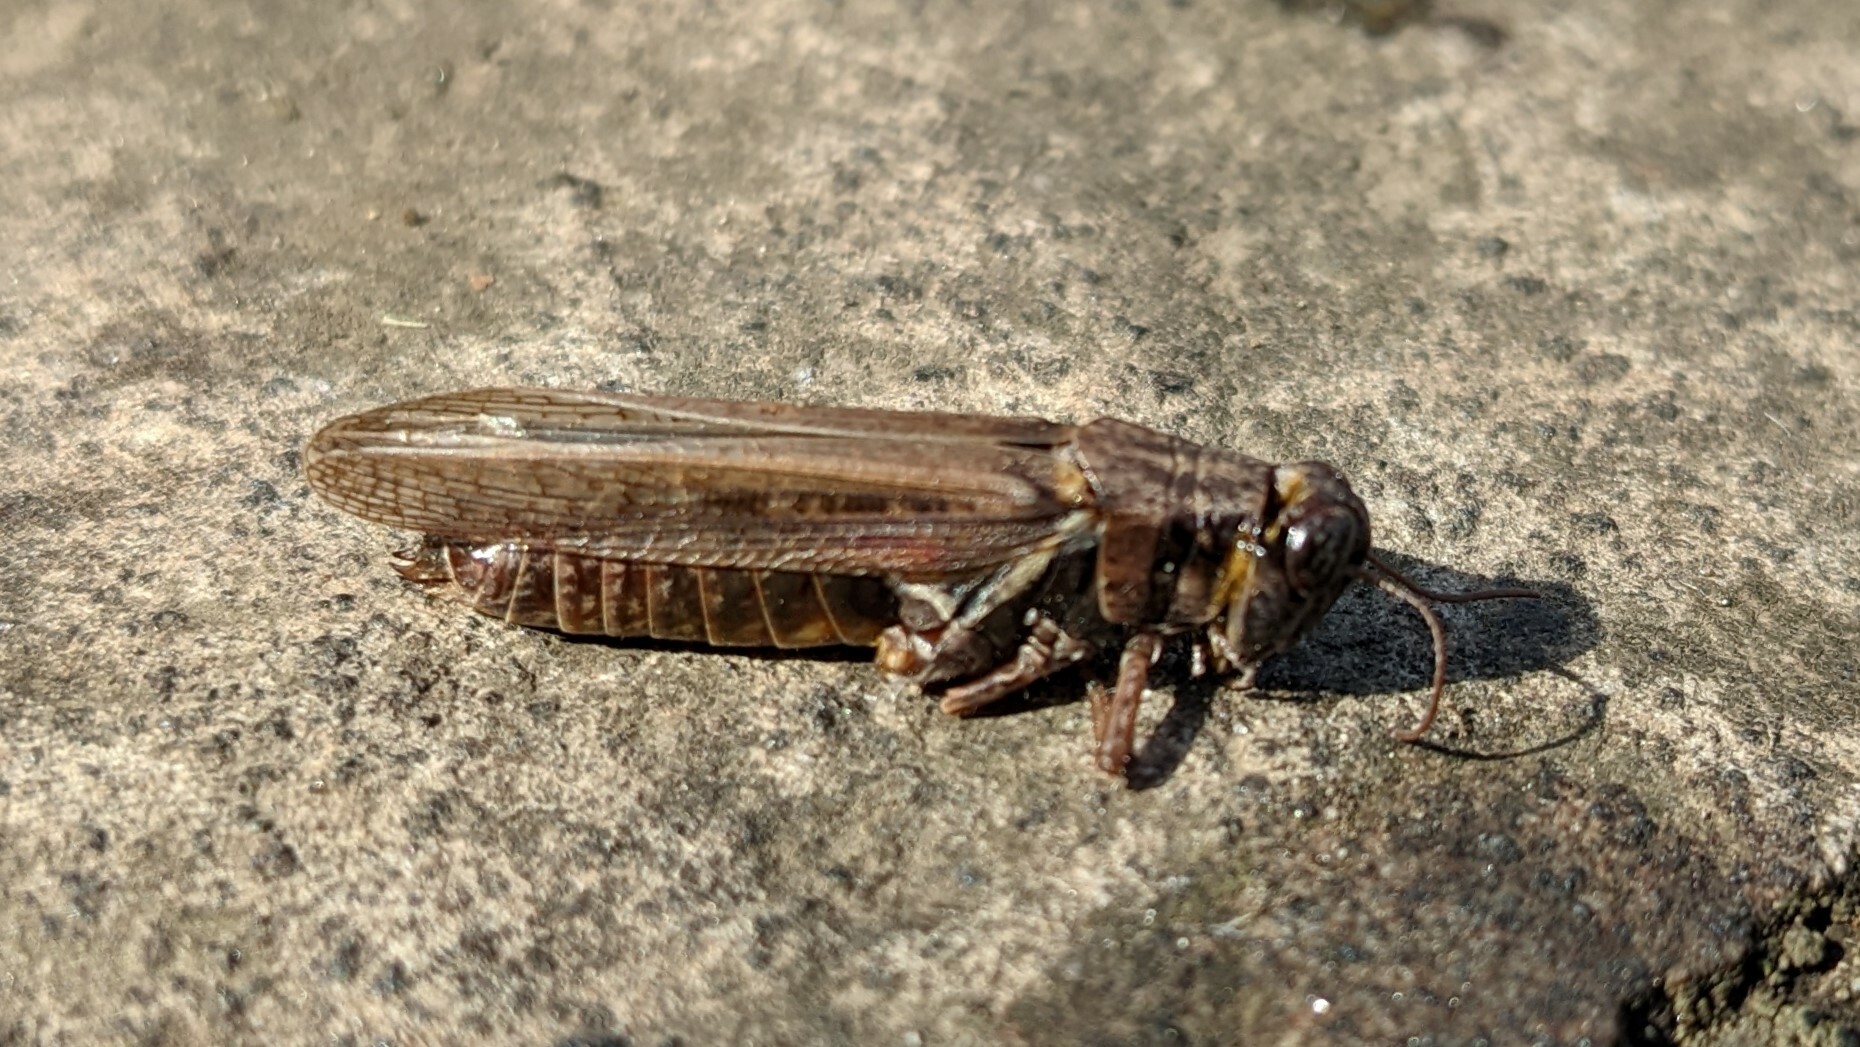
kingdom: Animalia
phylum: Arthropoda
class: Insecta
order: Orthoptera
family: Acrididae
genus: Melanoplus
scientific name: Melanoplus femurrubrum
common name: Red-legged grasshopper
